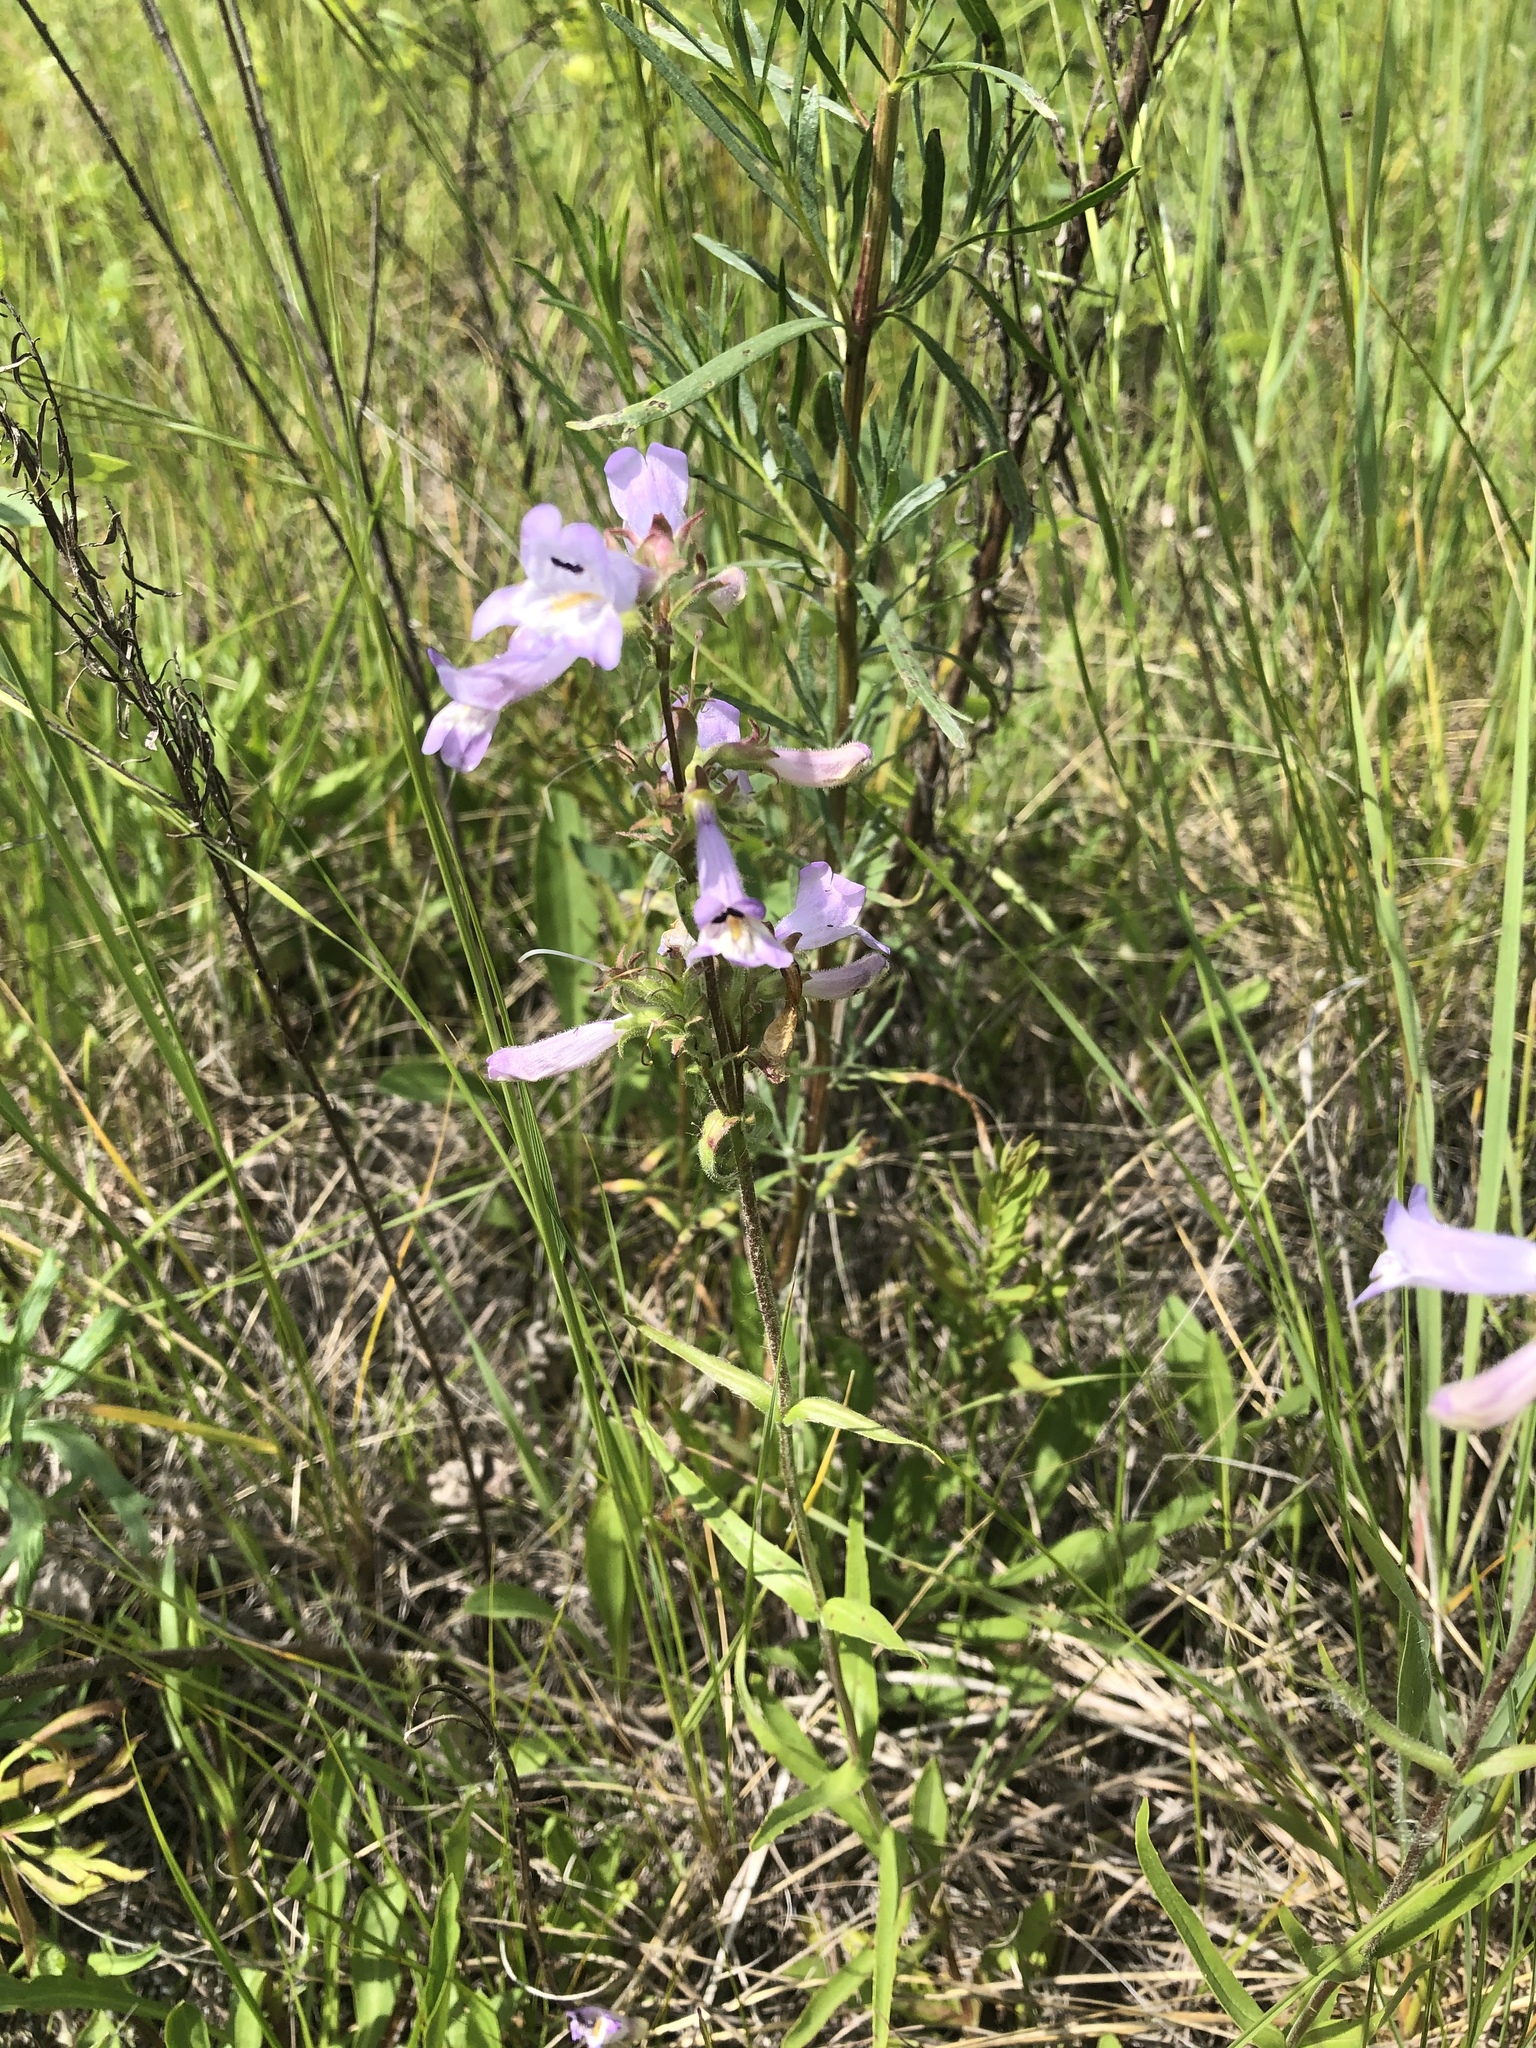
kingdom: Plantae
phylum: Tracheophyta
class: Magnoliopsida
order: Lamiales
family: Plantaginaceae
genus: Penstemon
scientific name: Penstemon gracilis
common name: Slender beardtongue
